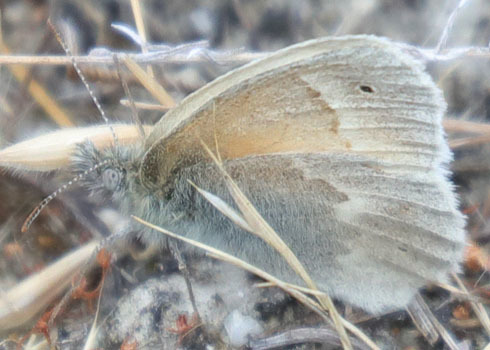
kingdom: Animalia
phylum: Arthropoda
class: Insecta
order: Lepidoptera
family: Nymphalidae
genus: Coenonympha
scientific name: Coenonympha california
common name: Common ringlet
